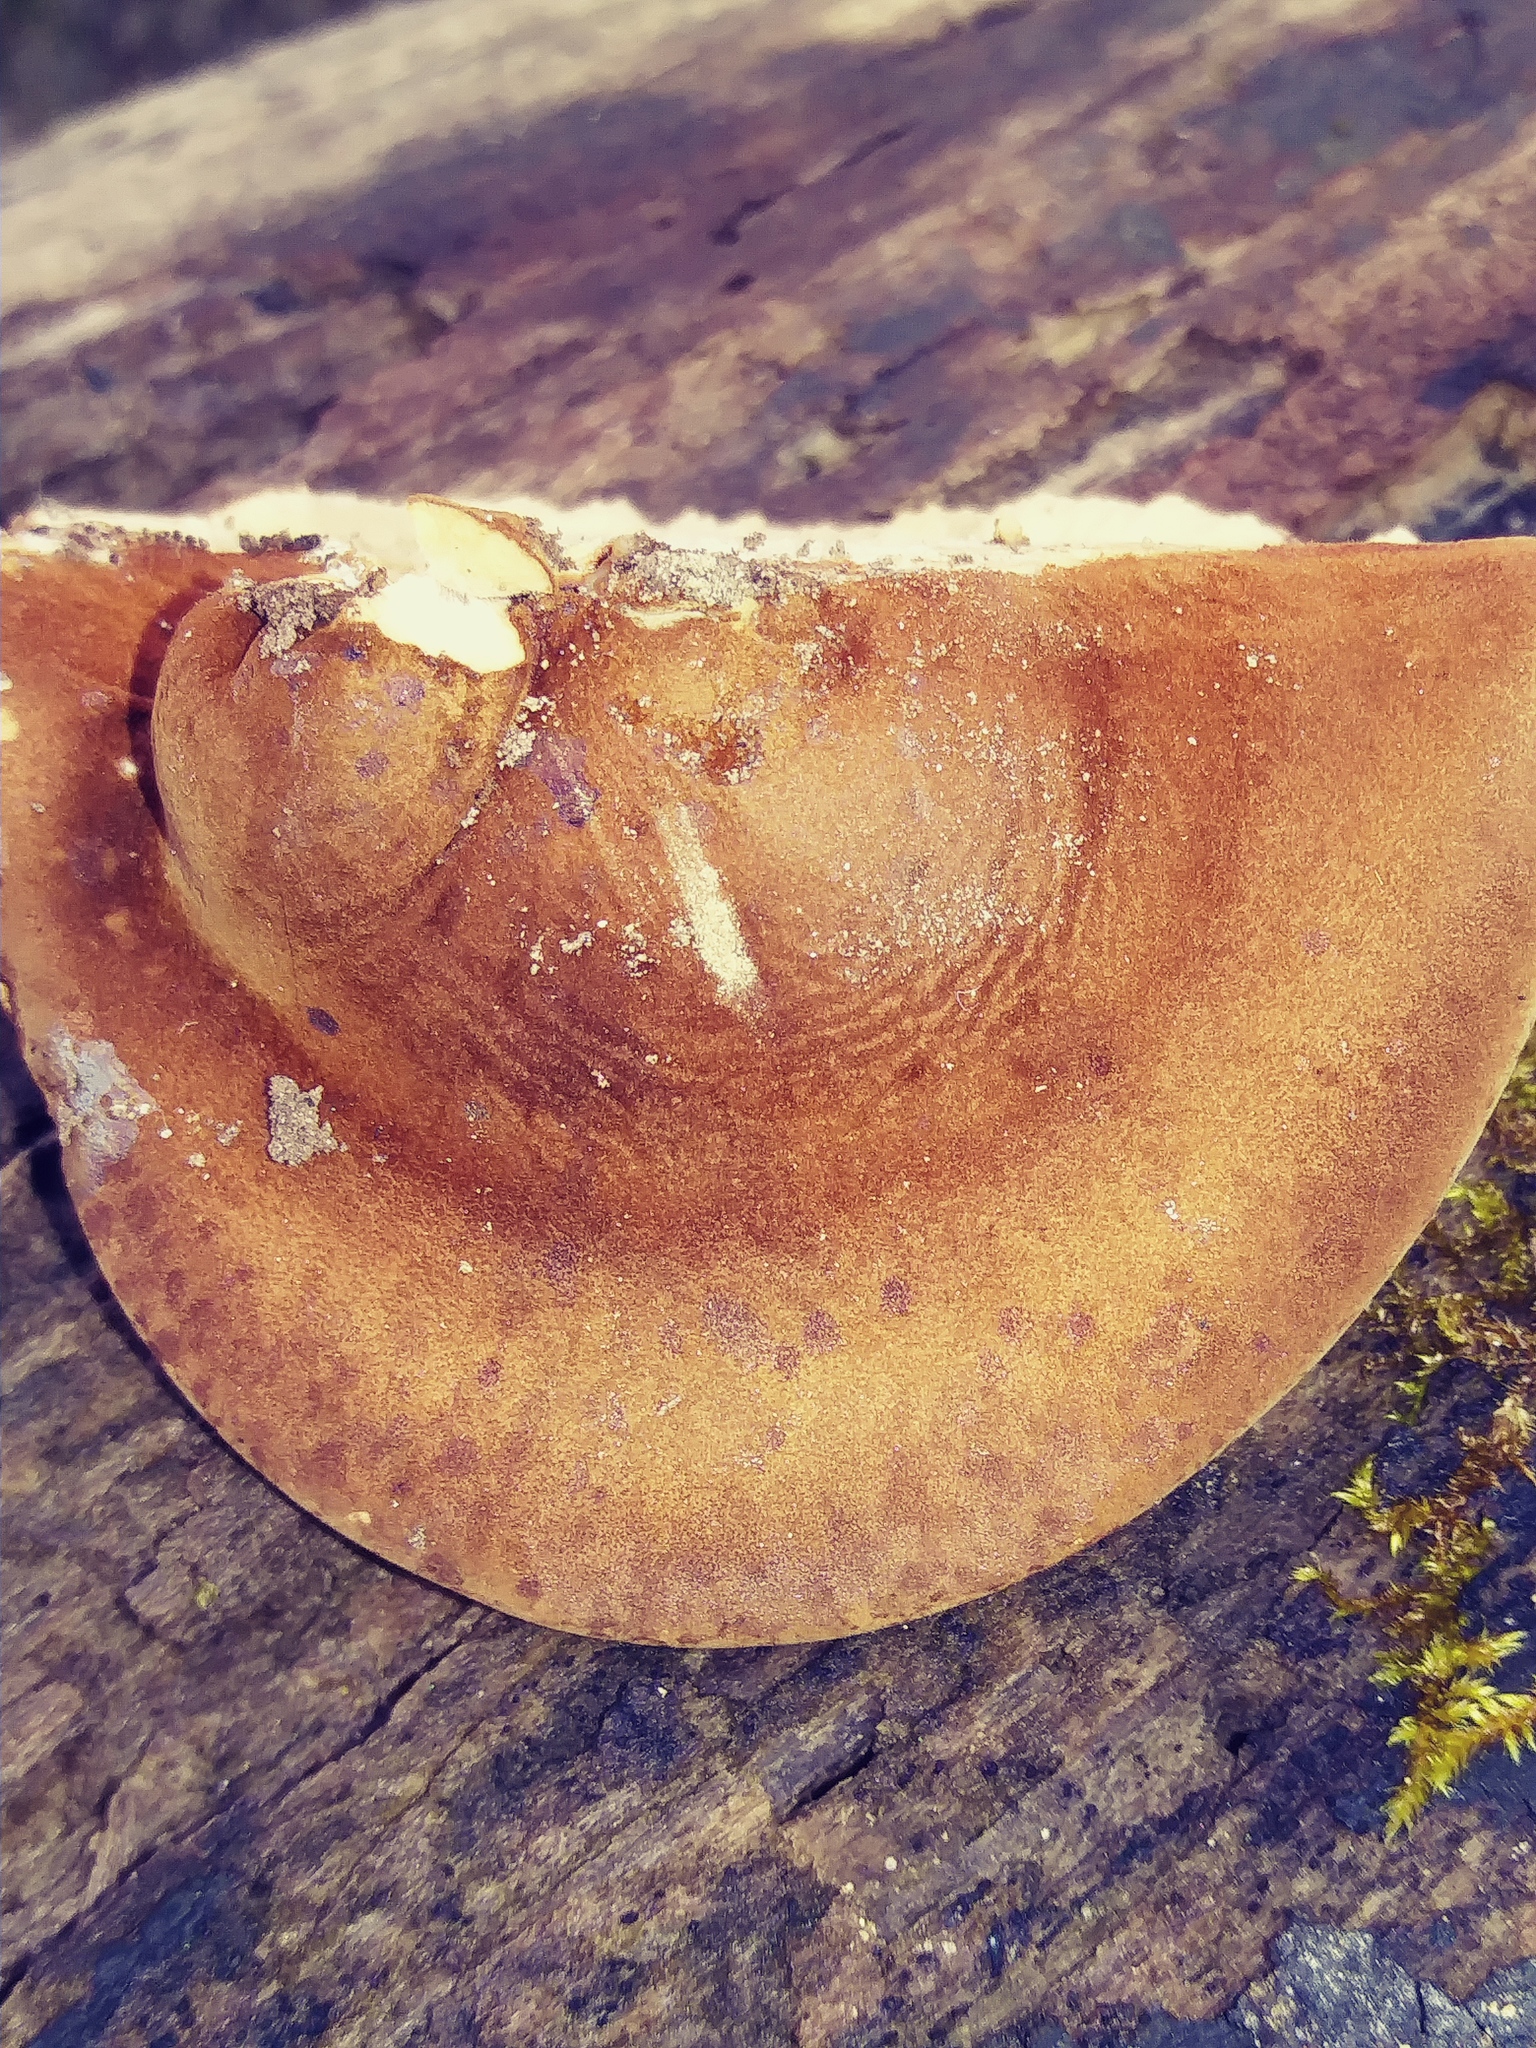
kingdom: Fungi
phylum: Basidiomycota
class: Agaricomycetes
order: Polyporales
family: Ischnodermataceae
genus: Ischnoderma
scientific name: Ischnoderma resinosum
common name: Resinous polypore
